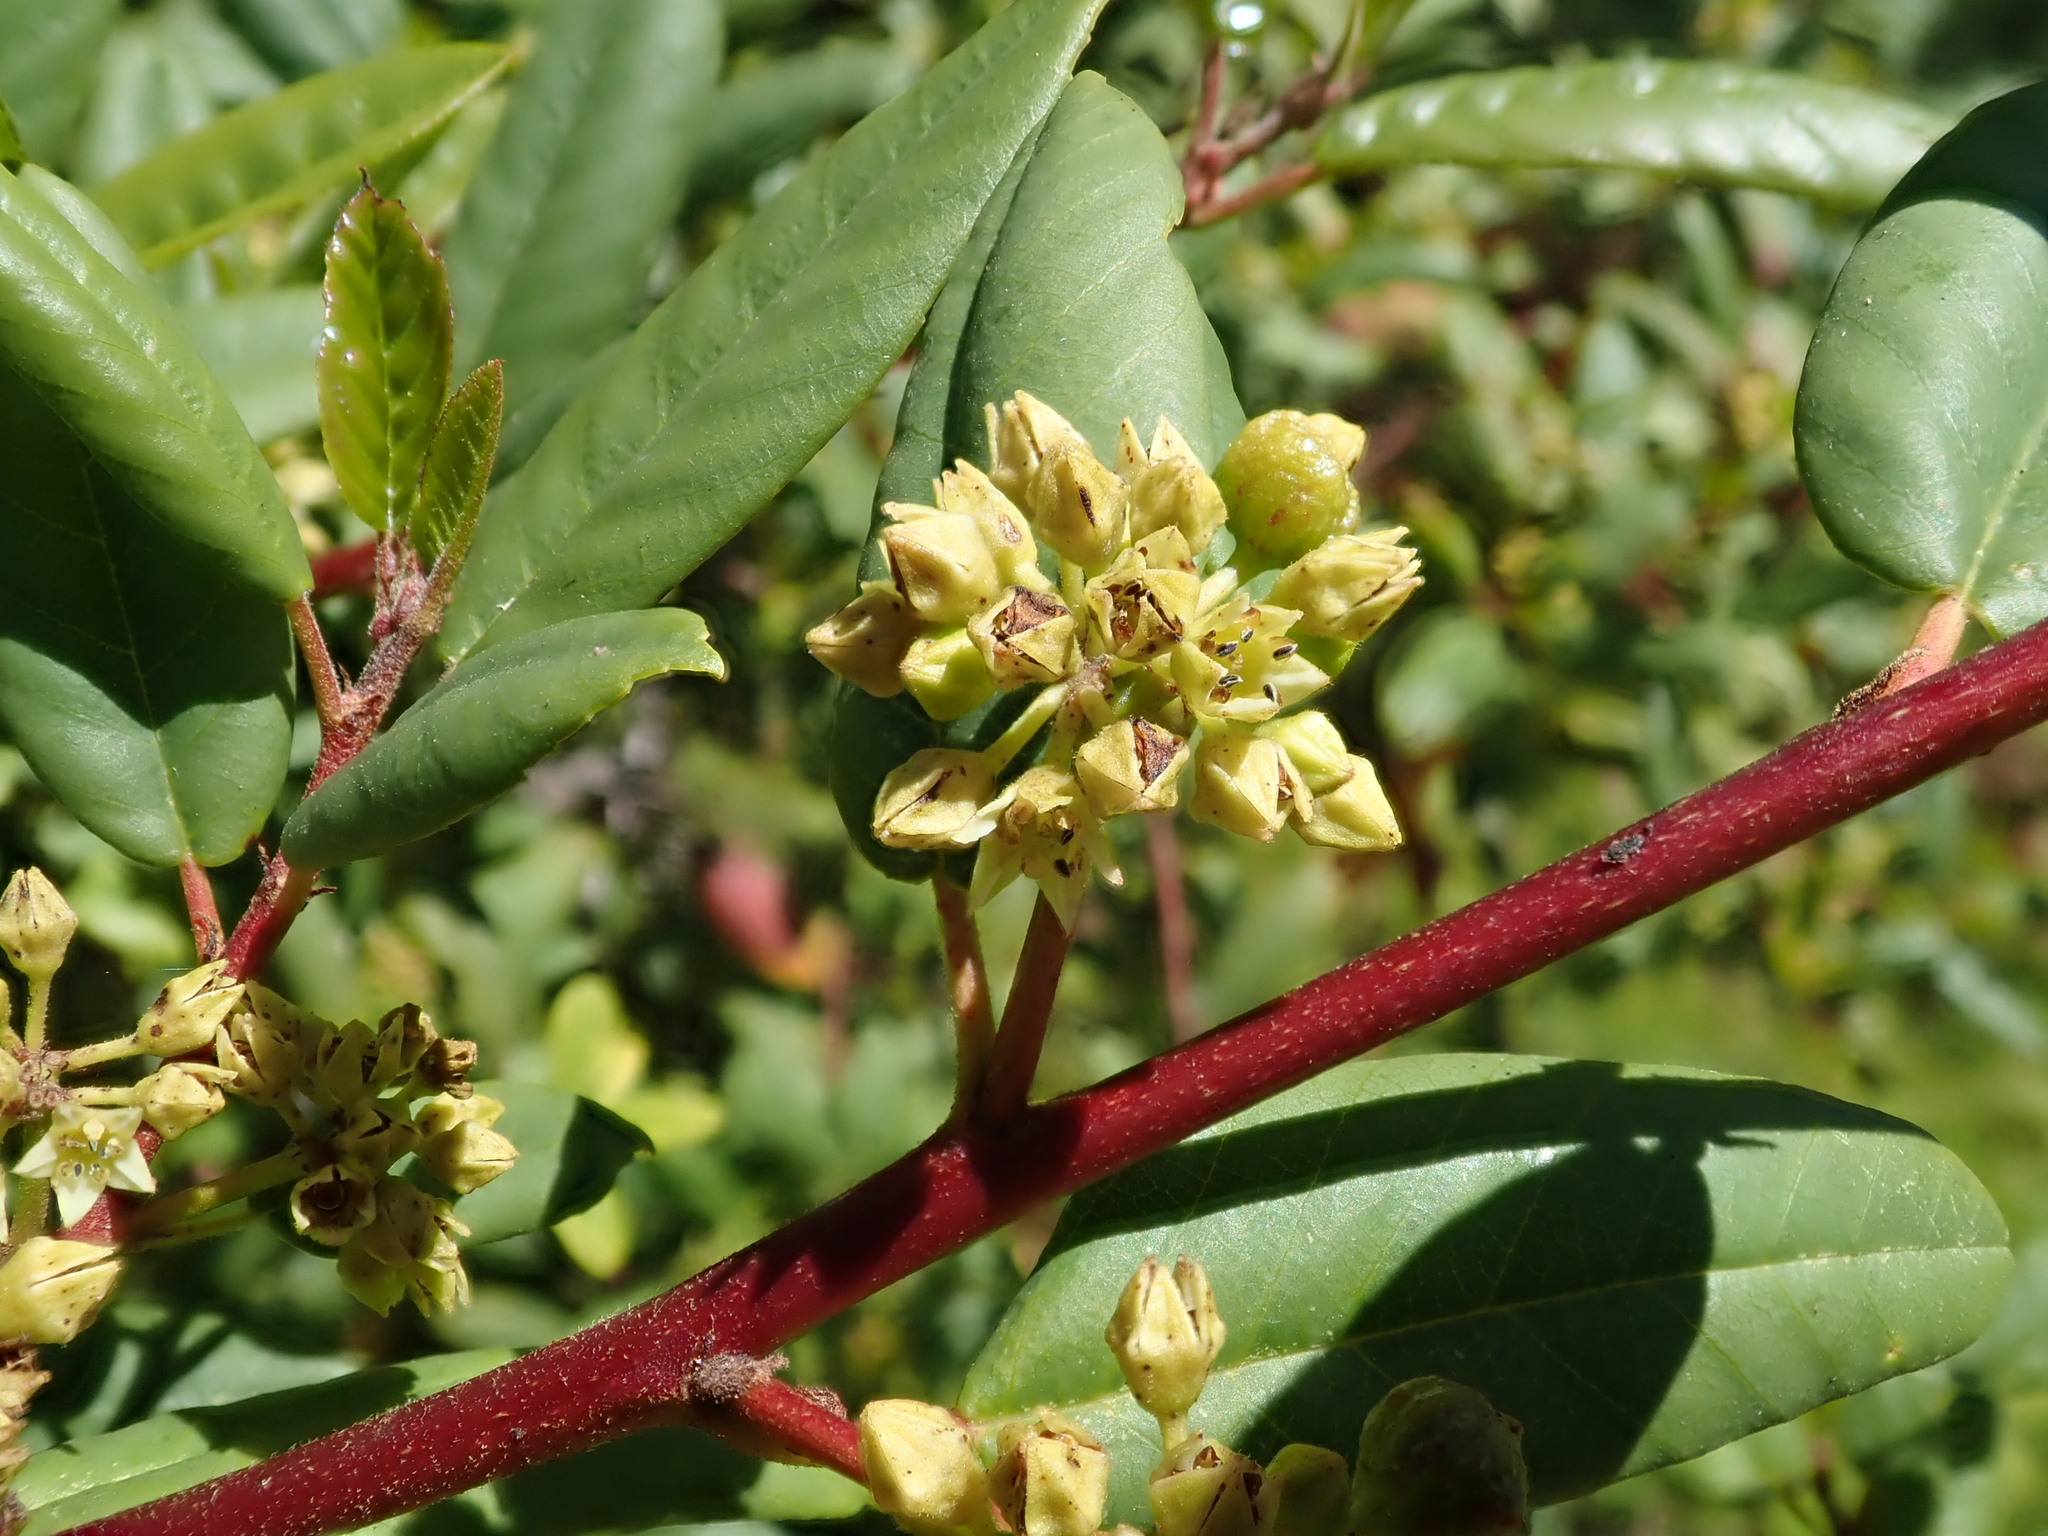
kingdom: Plantae
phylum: Tracheophyta
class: Magnoliopsida
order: Rosales
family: Rhamnaceae
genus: Frangula
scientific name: Frangula californica
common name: California buckthorn
